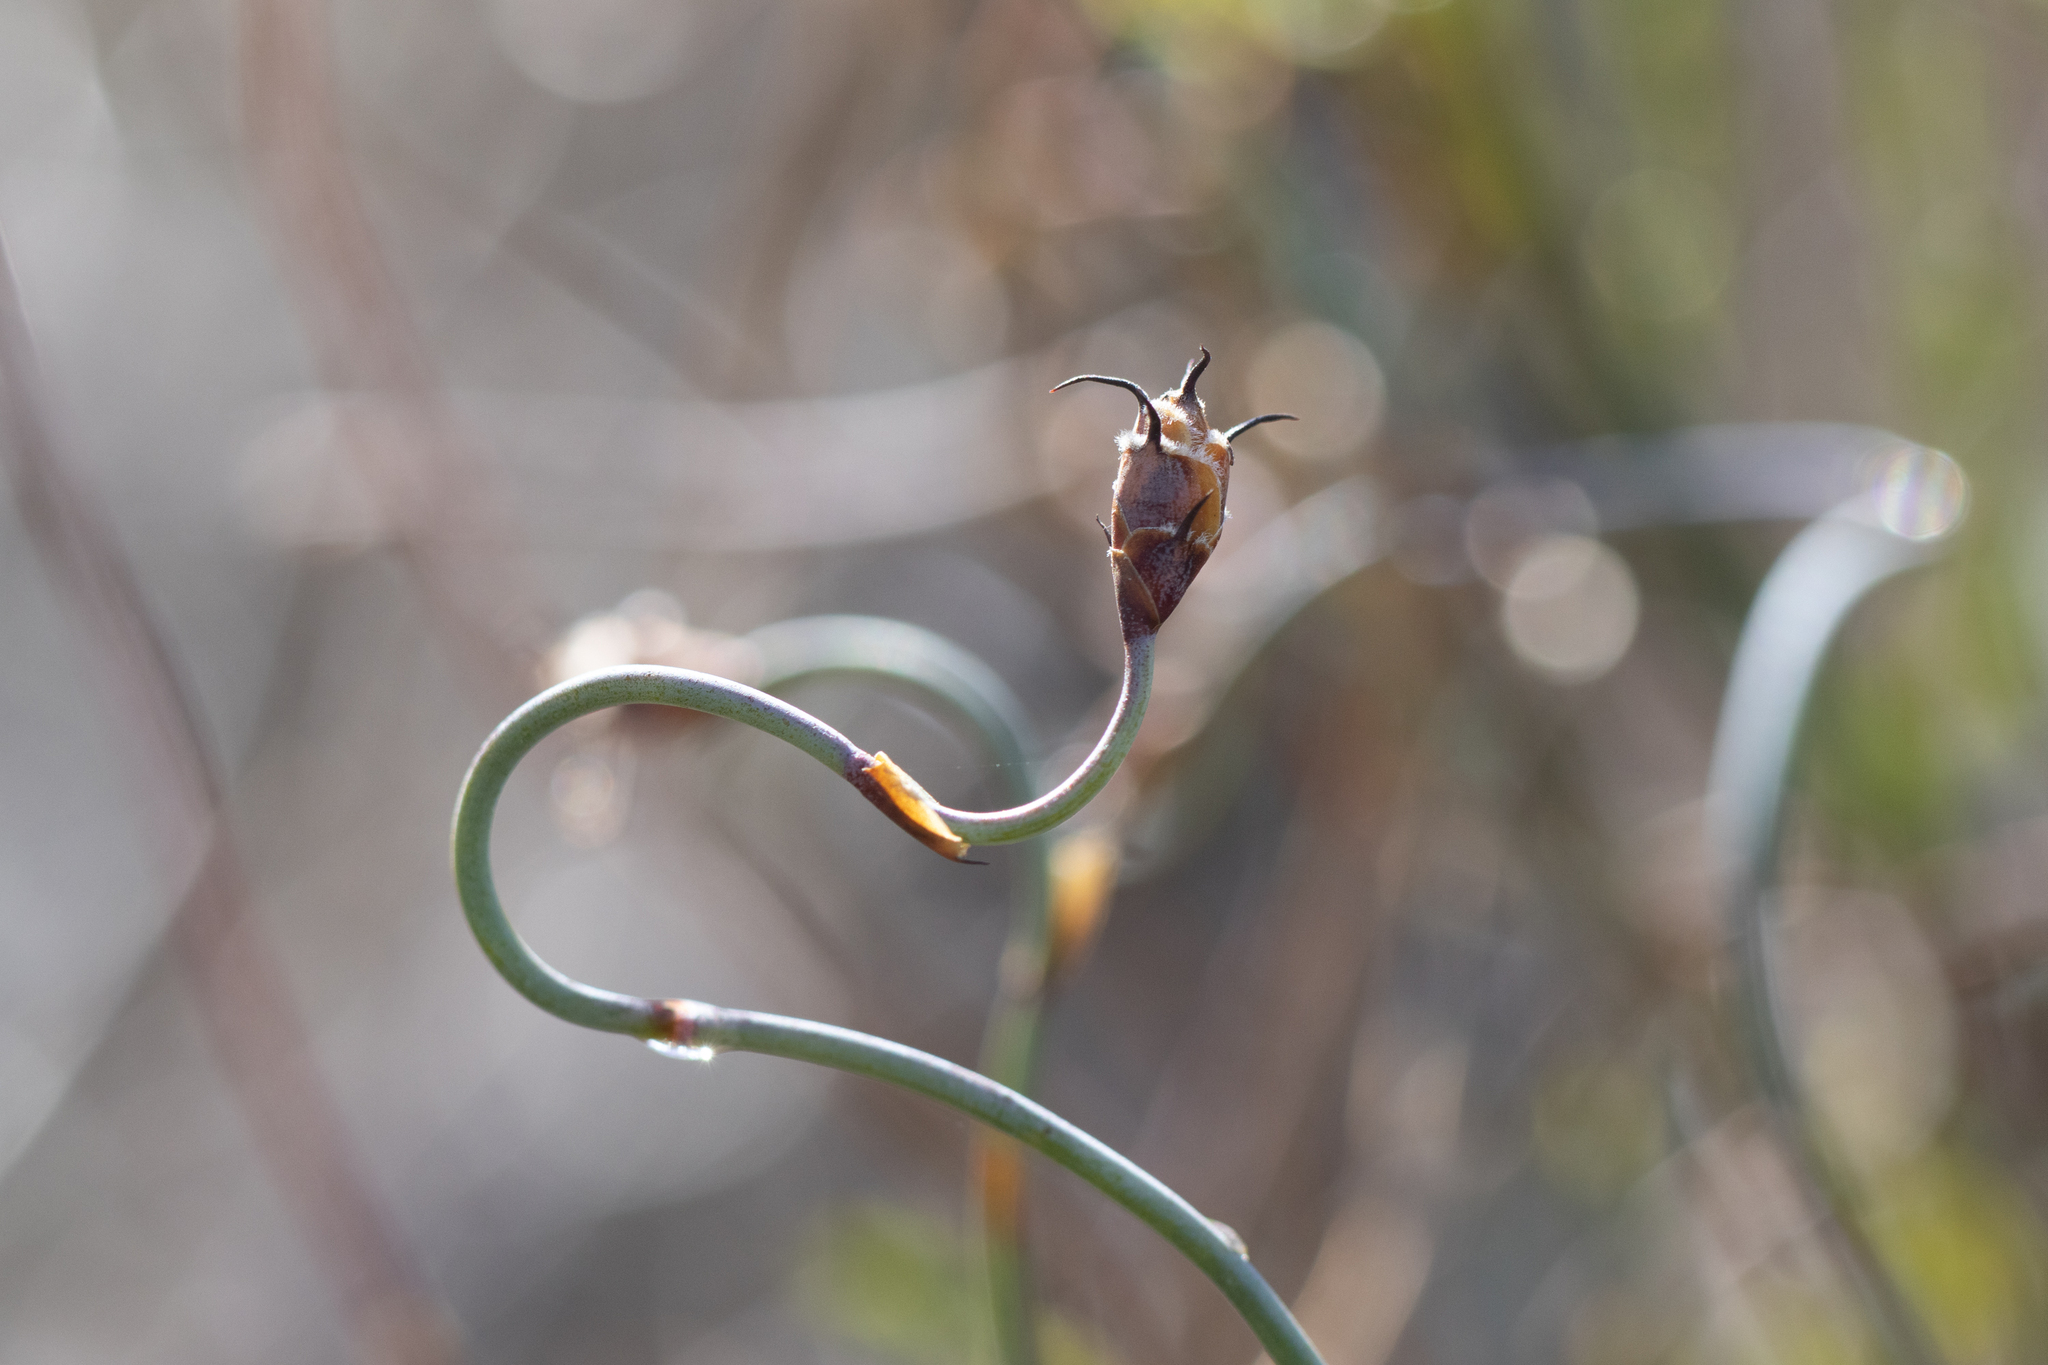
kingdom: Plantae
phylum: Tracheophyta
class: Liliopsida
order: Poales
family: Restionaceae
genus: Lepidobolus
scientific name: Lepidobolus drapetocoleus
